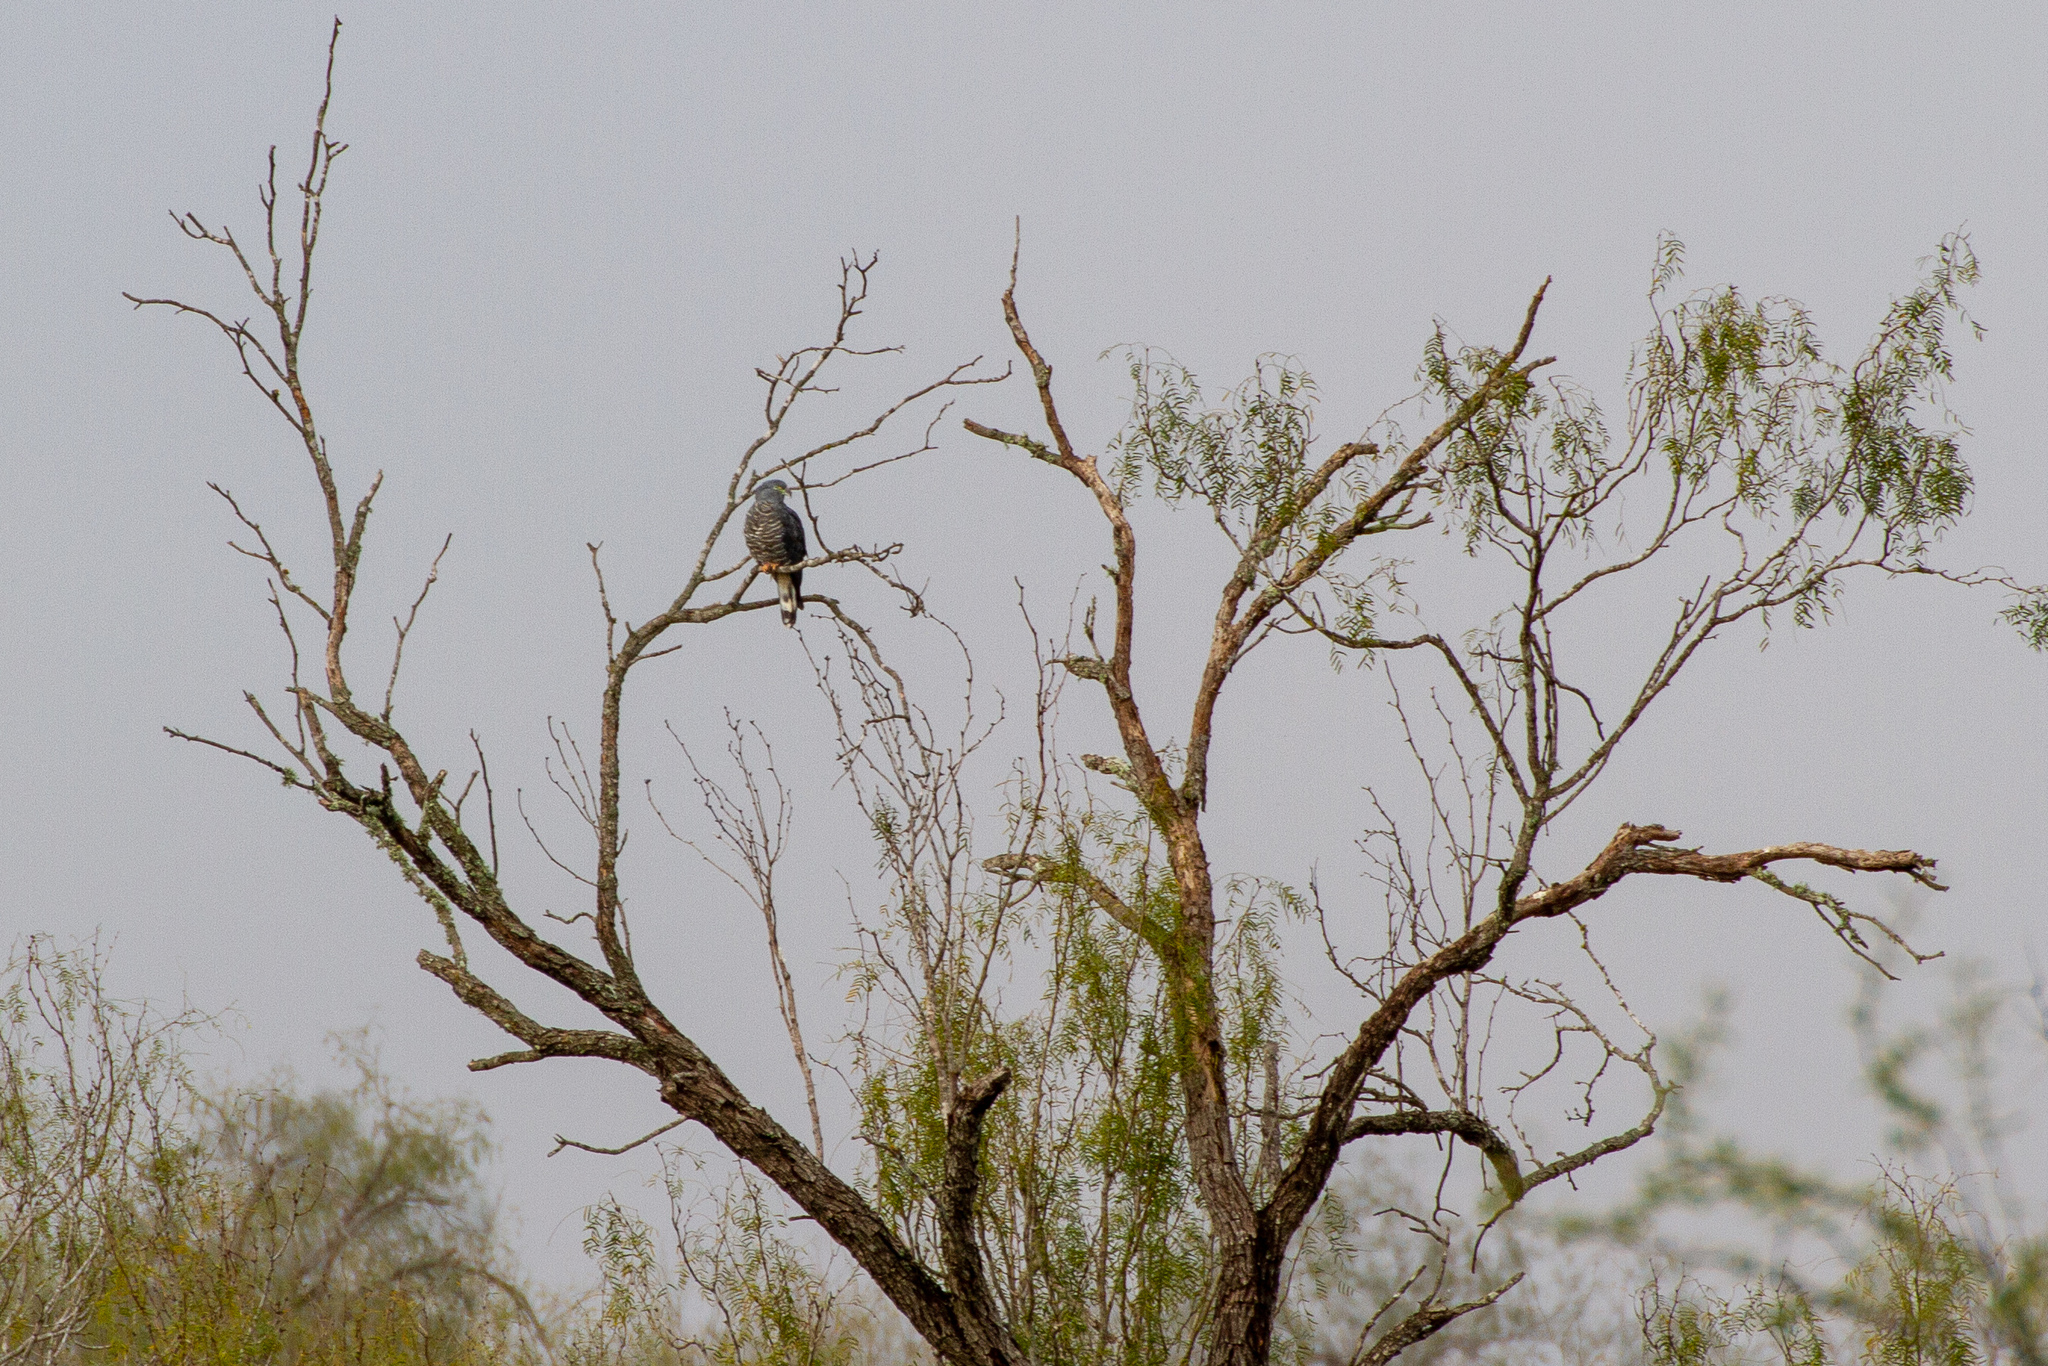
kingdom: Animalia
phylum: Chordata
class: Aves
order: Accipitriformes
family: Accipitridae
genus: Chondrohierax
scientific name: Chondrohierax uncinatus
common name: Hook-billed kite
